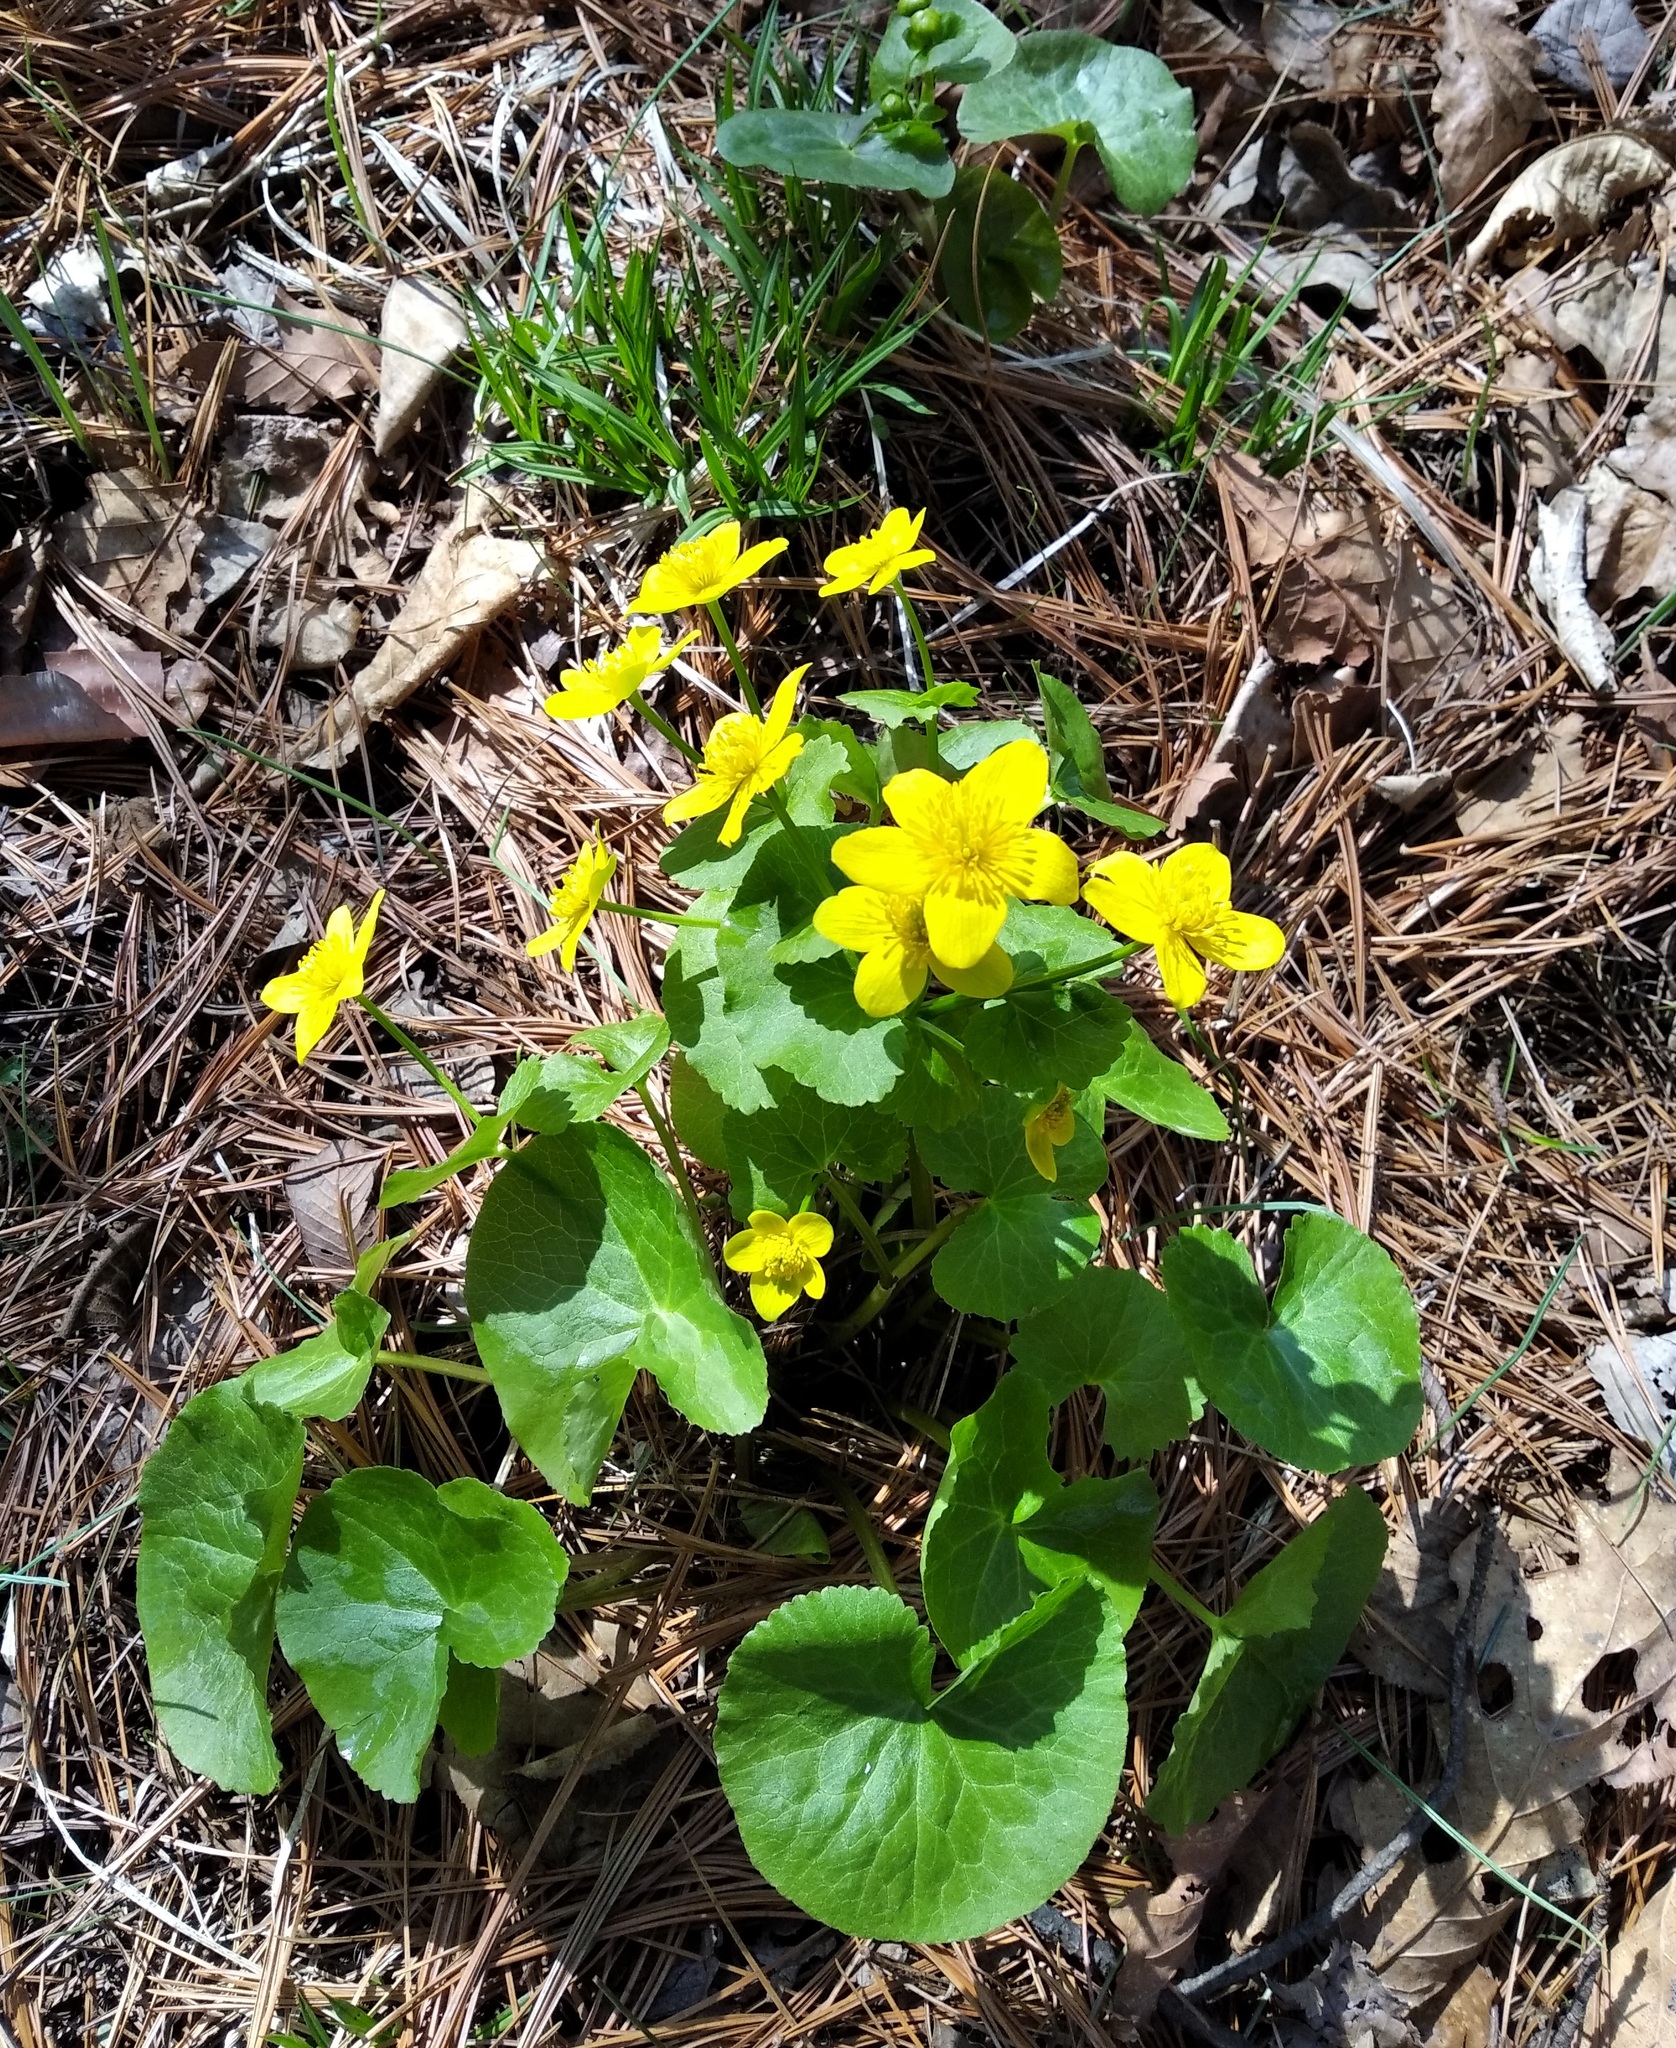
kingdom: Plantae
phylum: Tracheophyta
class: Magnoliopsida
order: Ranunculales
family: Ranunculaceae
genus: Caltha
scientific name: Caltha palustris
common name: Marsh marigold
